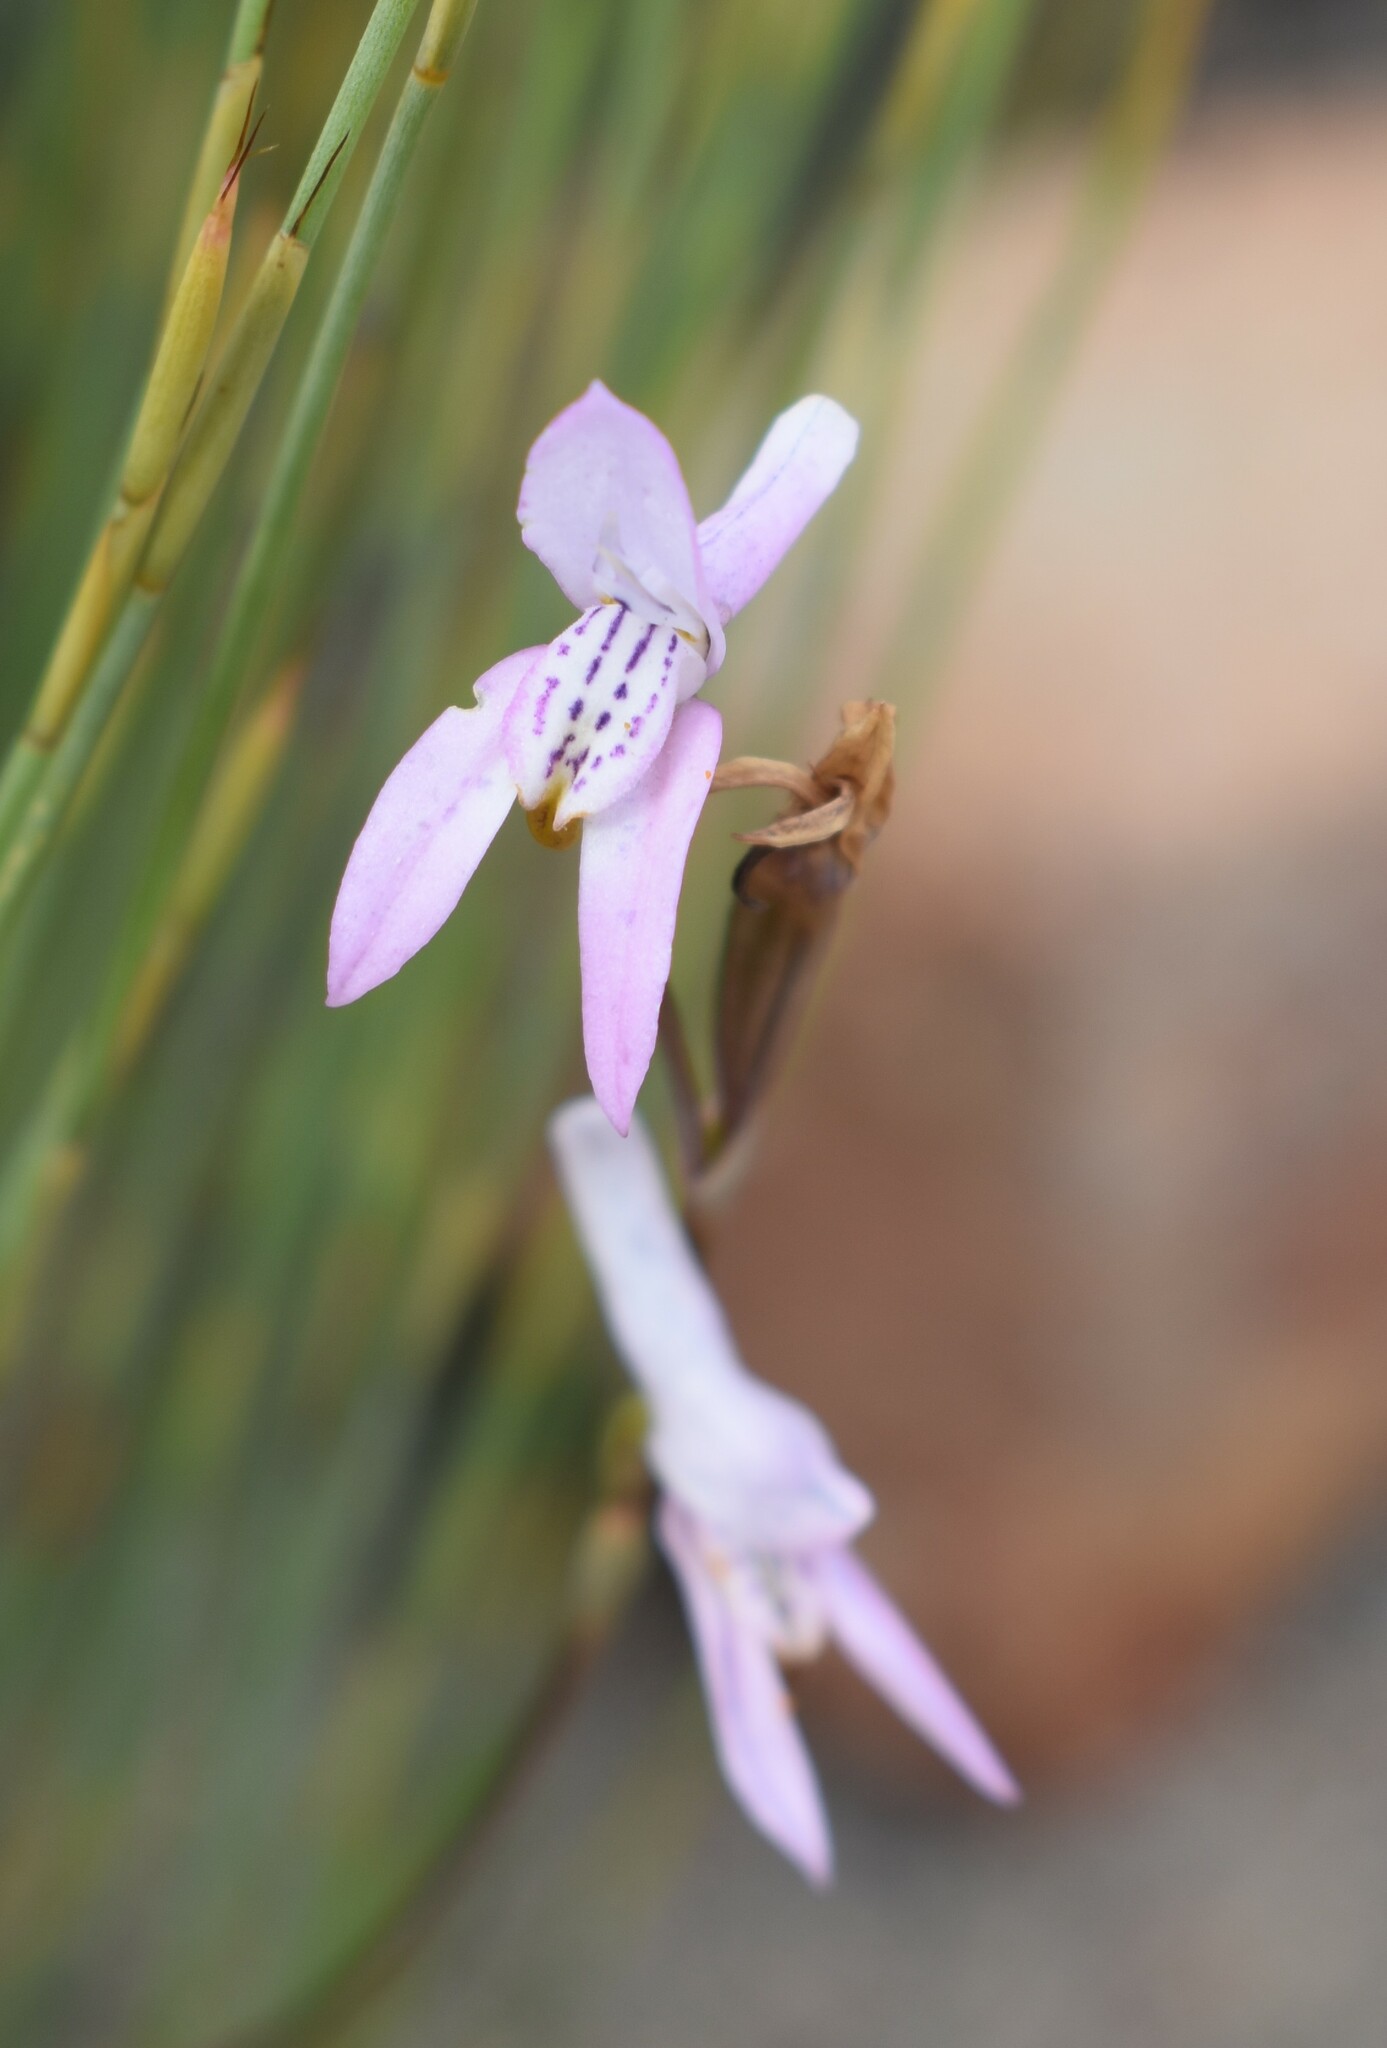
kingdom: Plantae
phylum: Tracheophyta
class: Liliopsida
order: Asparagales
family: Orchidaceae
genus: Disa
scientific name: Disa bifida
